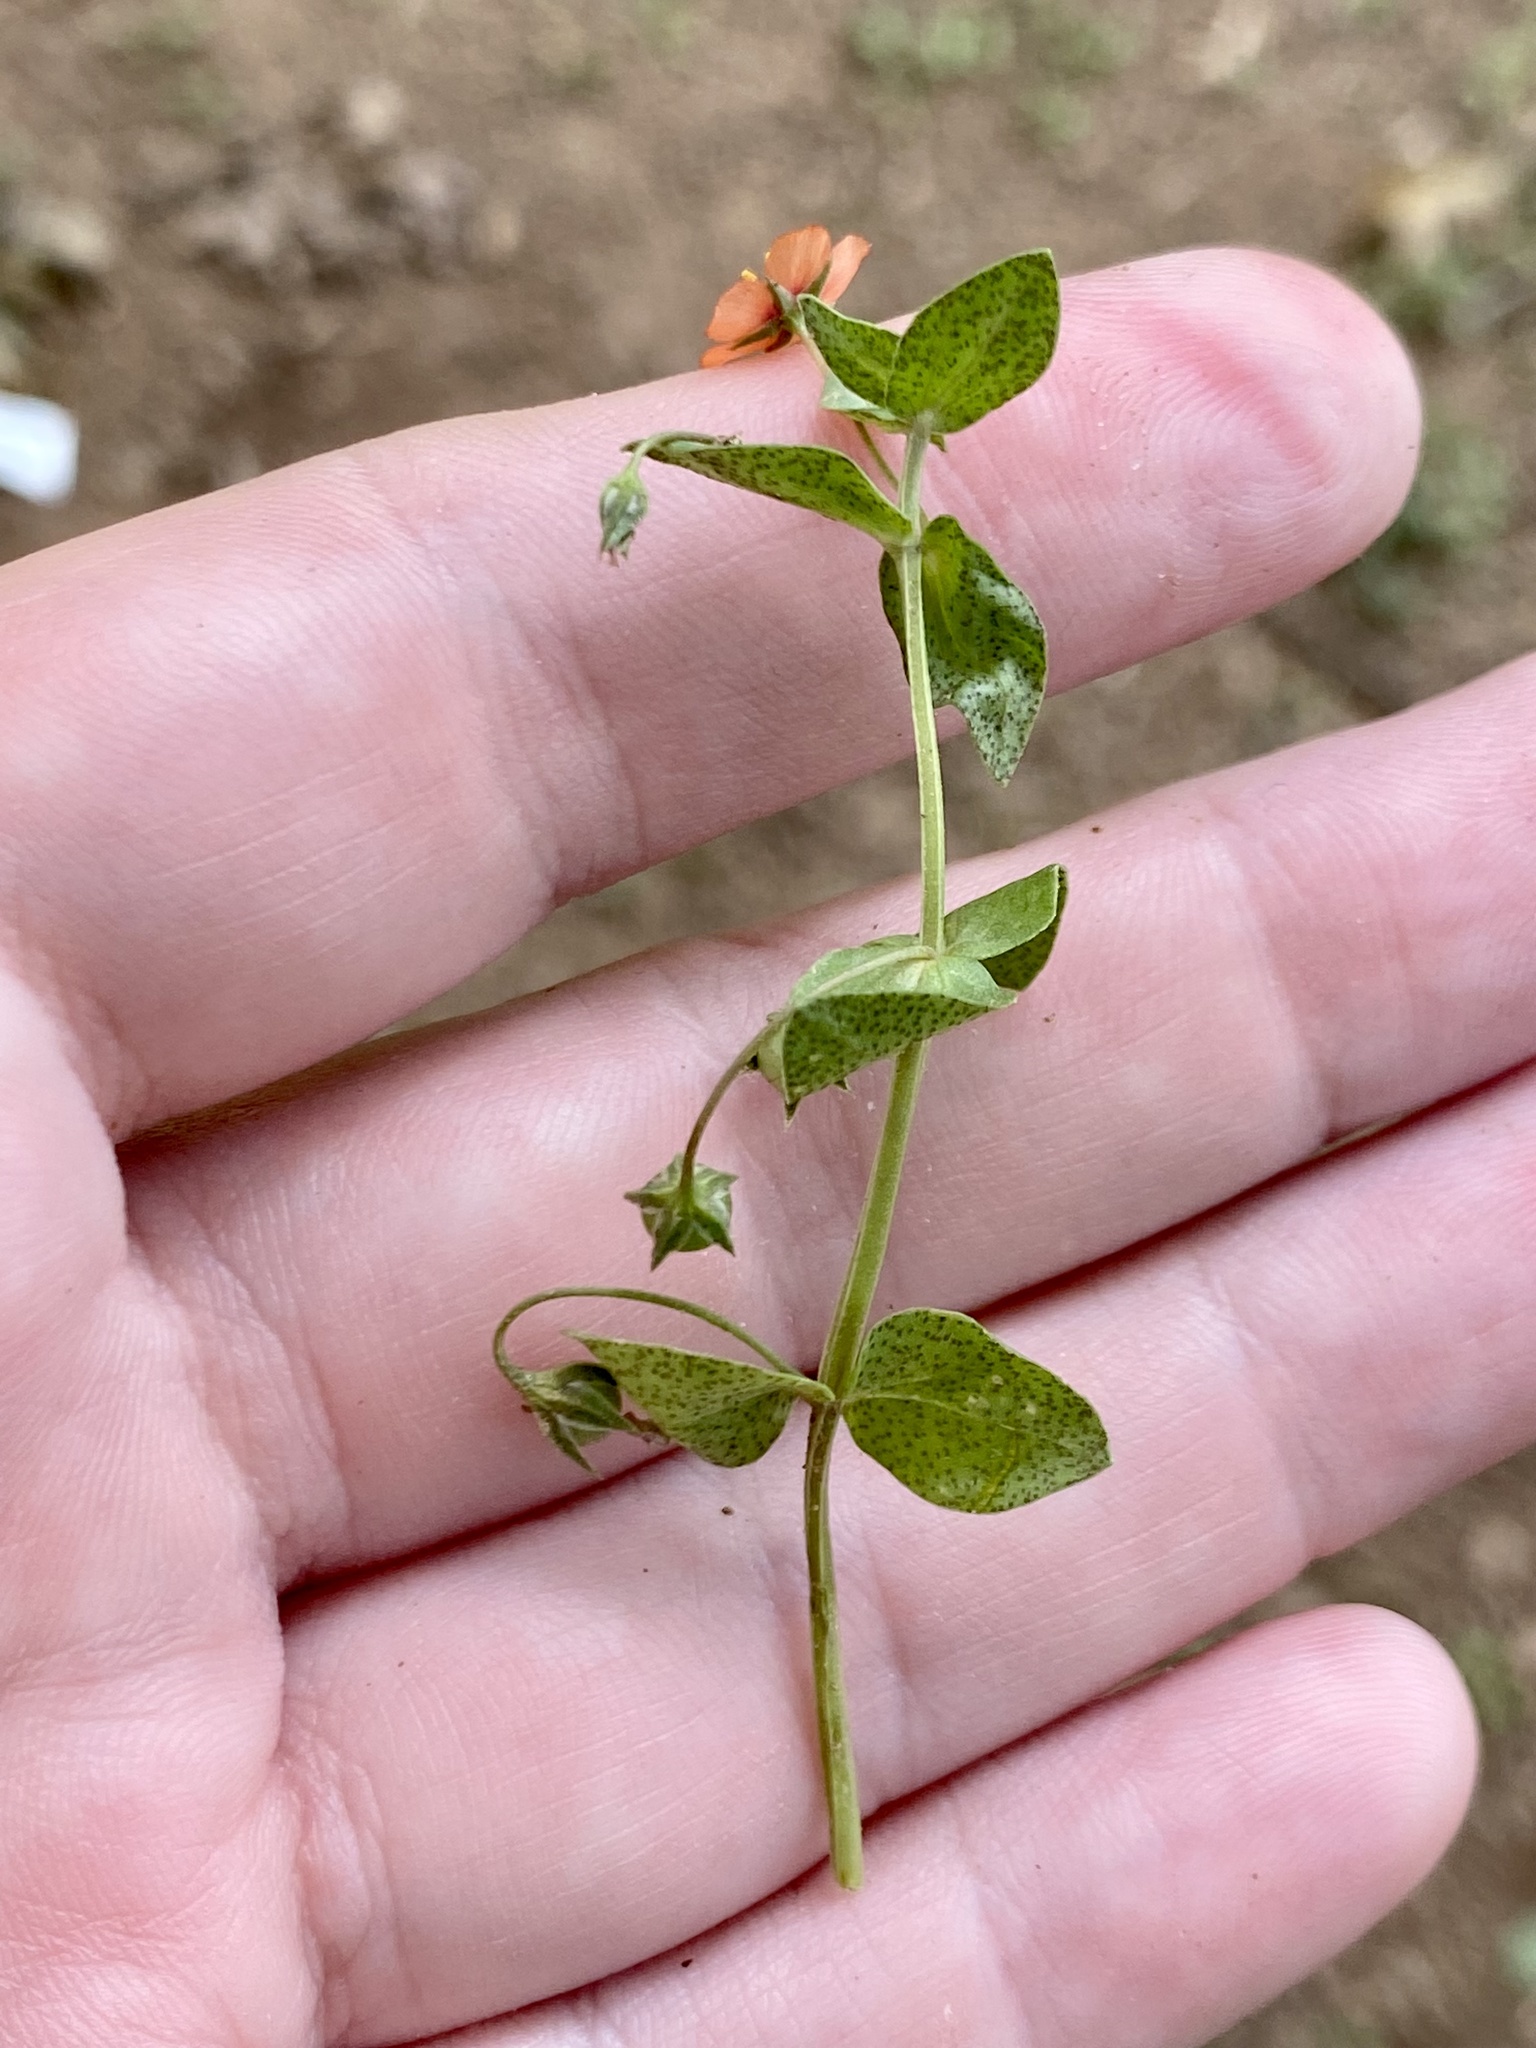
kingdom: Plantae
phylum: Tracheophyta
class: Magnoliopsida
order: Ericales
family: Primulaceae
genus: Lysimachia
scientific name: Lysimachia arvensis
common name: Scarlet pimpernel
